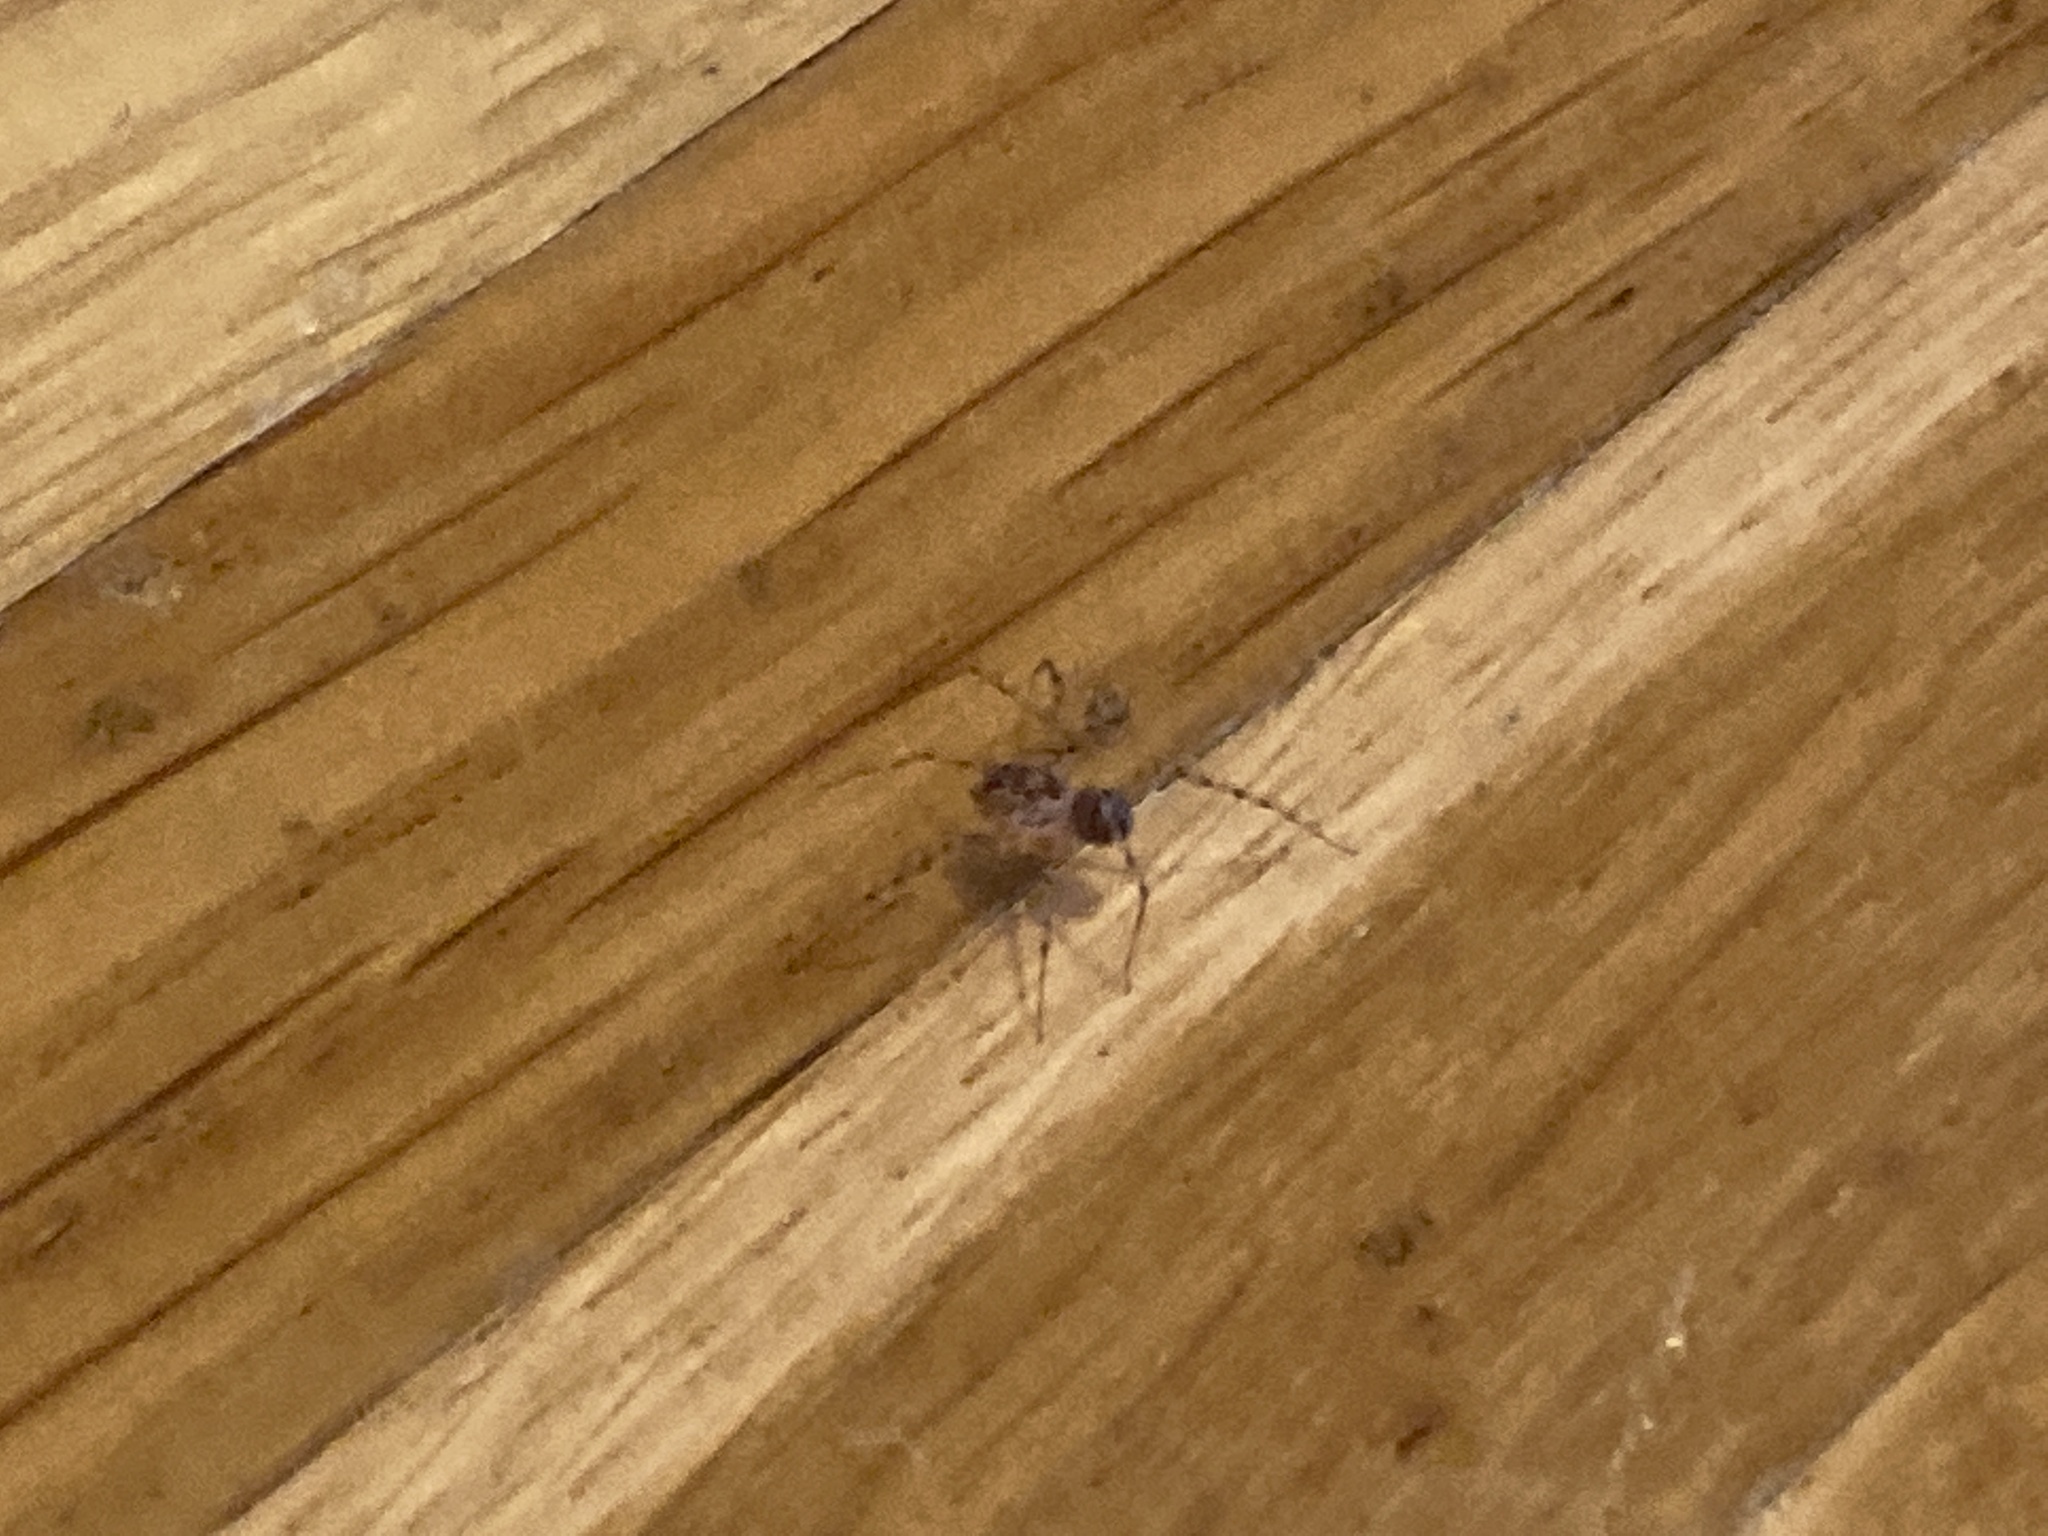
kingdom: Animalia
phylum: Arthropoda
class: Arachnida
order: Araneae
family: Scytodidae
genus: Scytodes
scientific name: Scytodes thoracica
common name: Spitting spider
